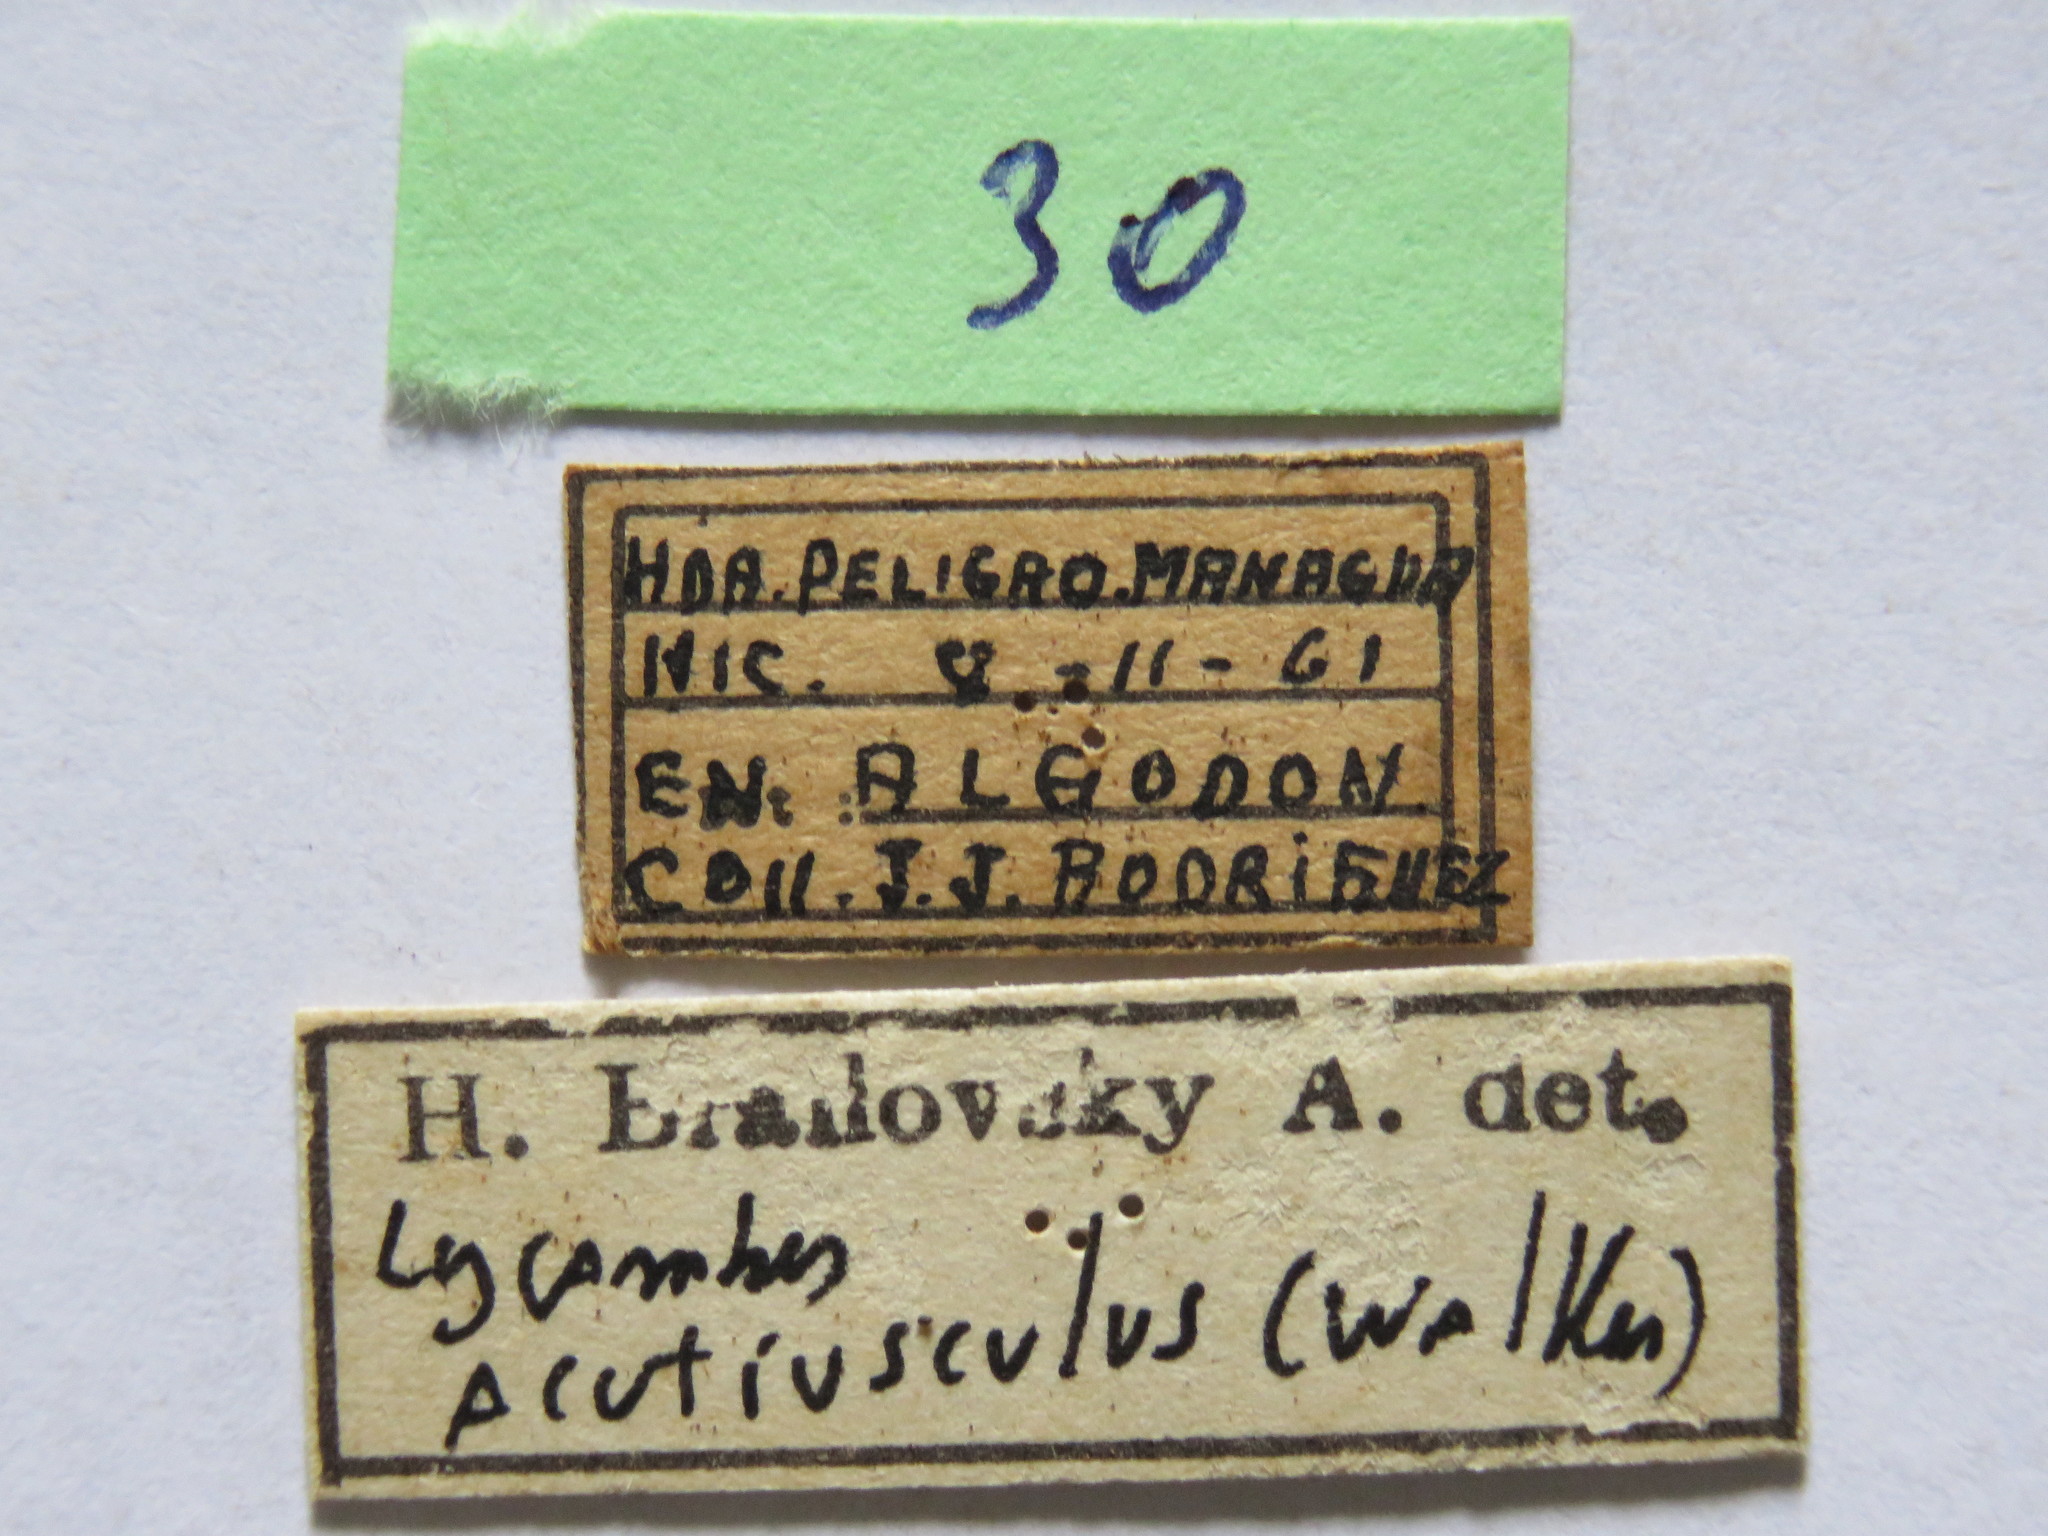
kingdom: Animalia
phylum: Arthropoda
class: Insecta
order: Hemiptera
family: Coreidae
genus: Lycambes
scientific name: Lycambes varicolor
